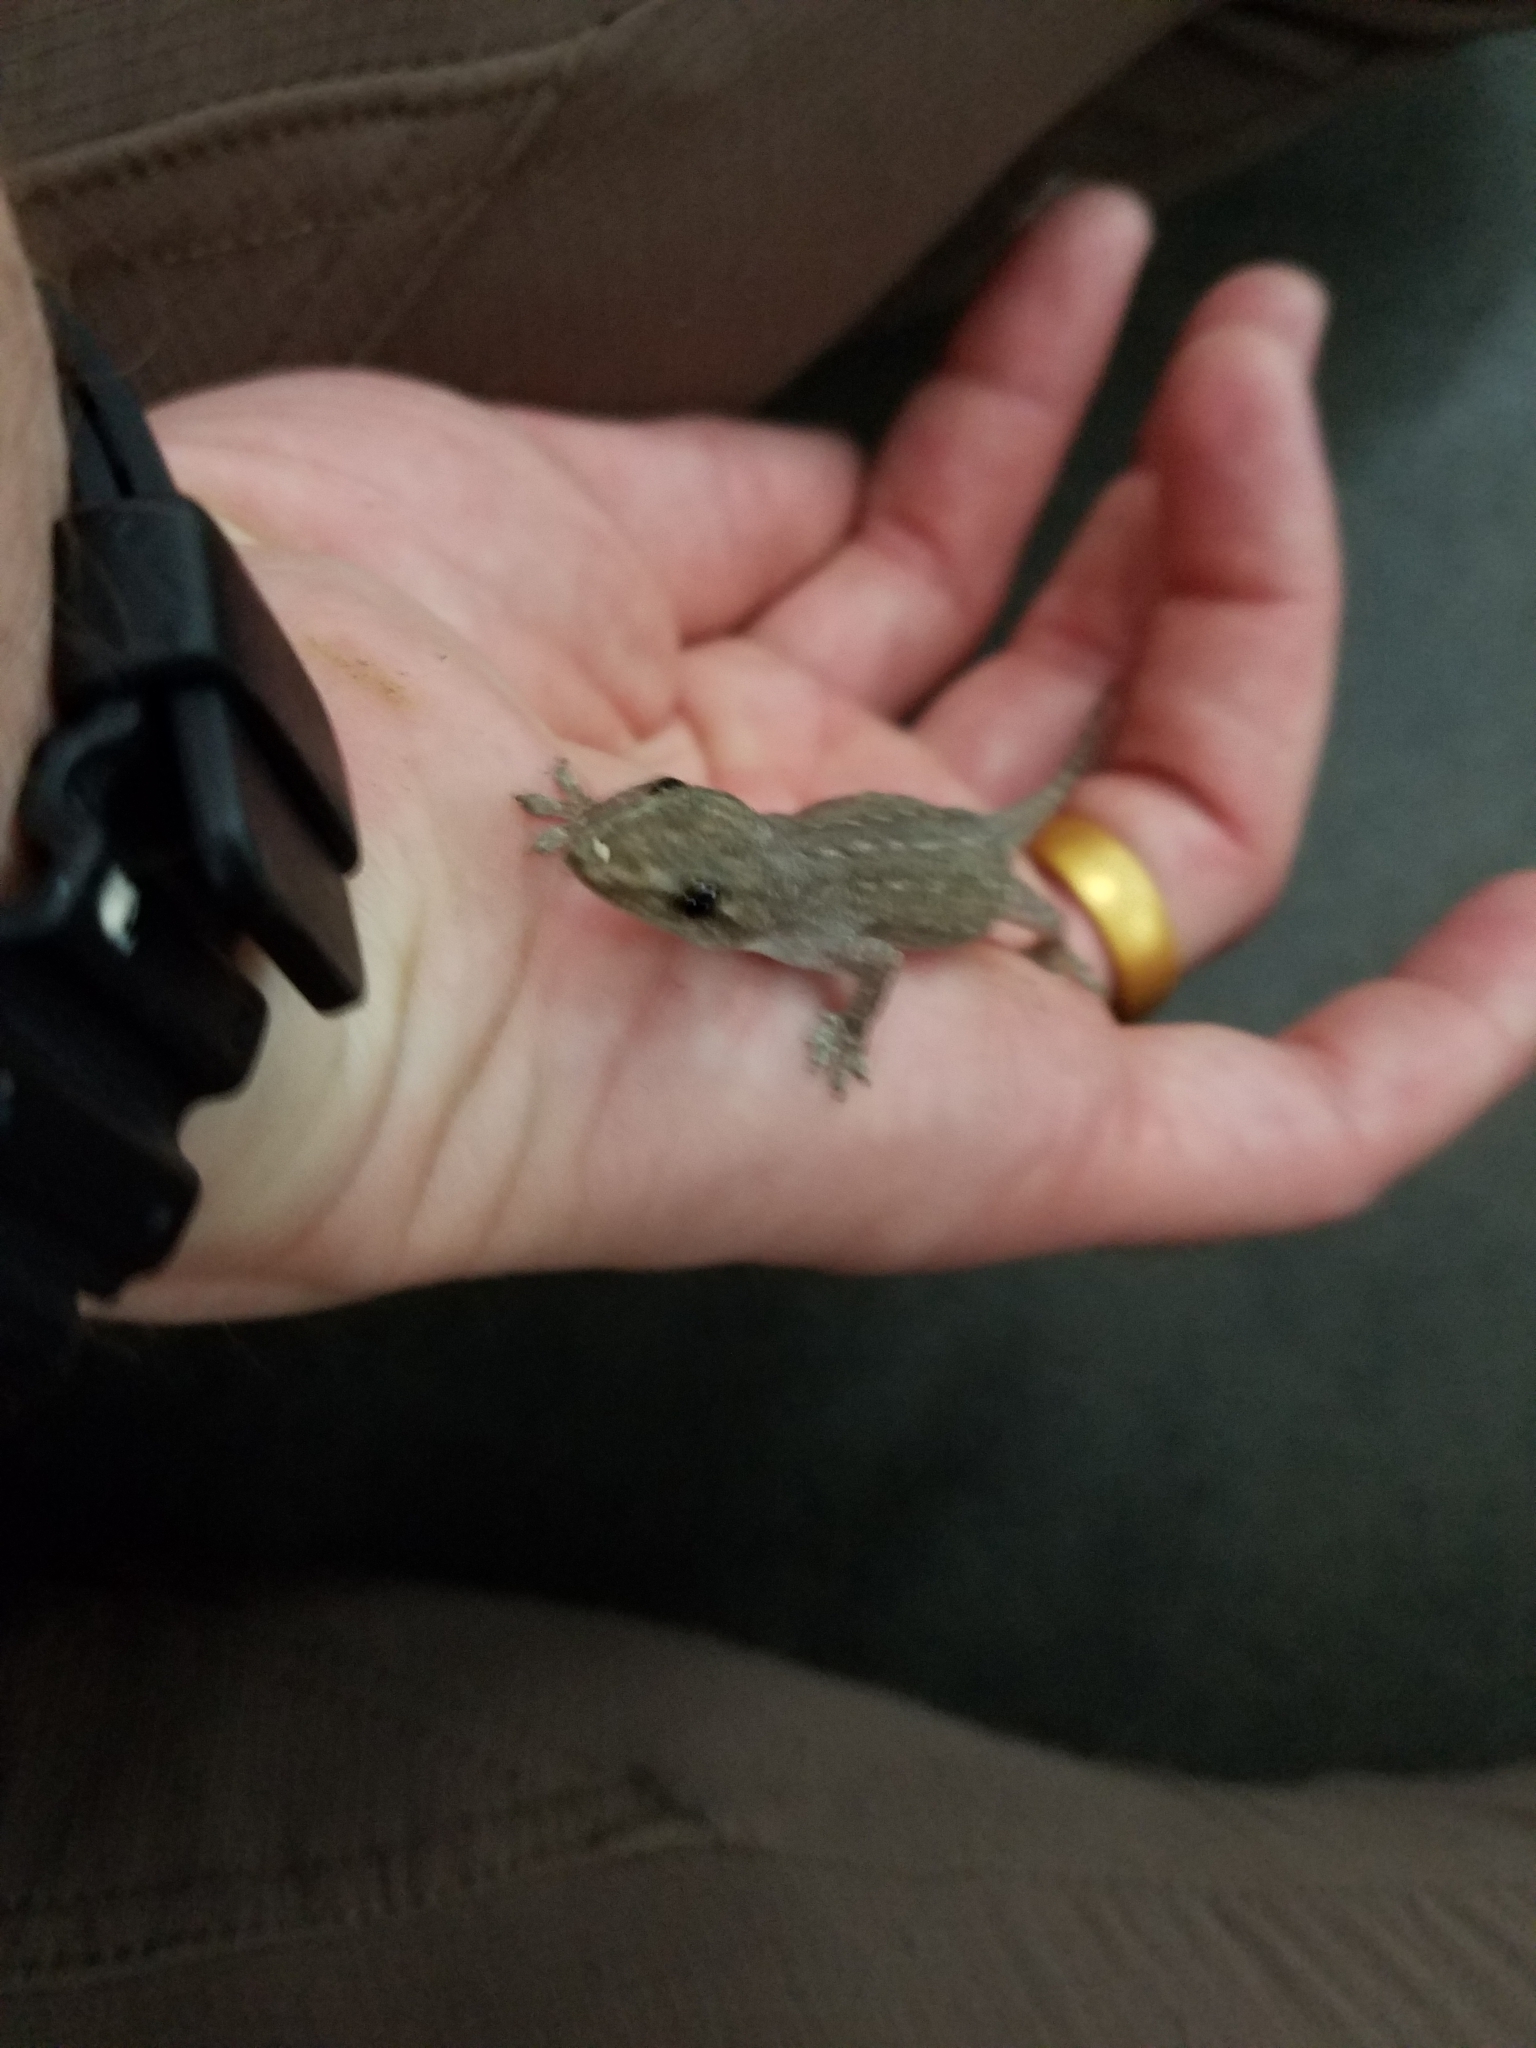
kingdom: Animalia
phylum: Chordata
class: Squamata
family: Gekkonidae
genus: Hemidactylus
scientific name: Hemidactylus frenatus
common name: Common house gecko
